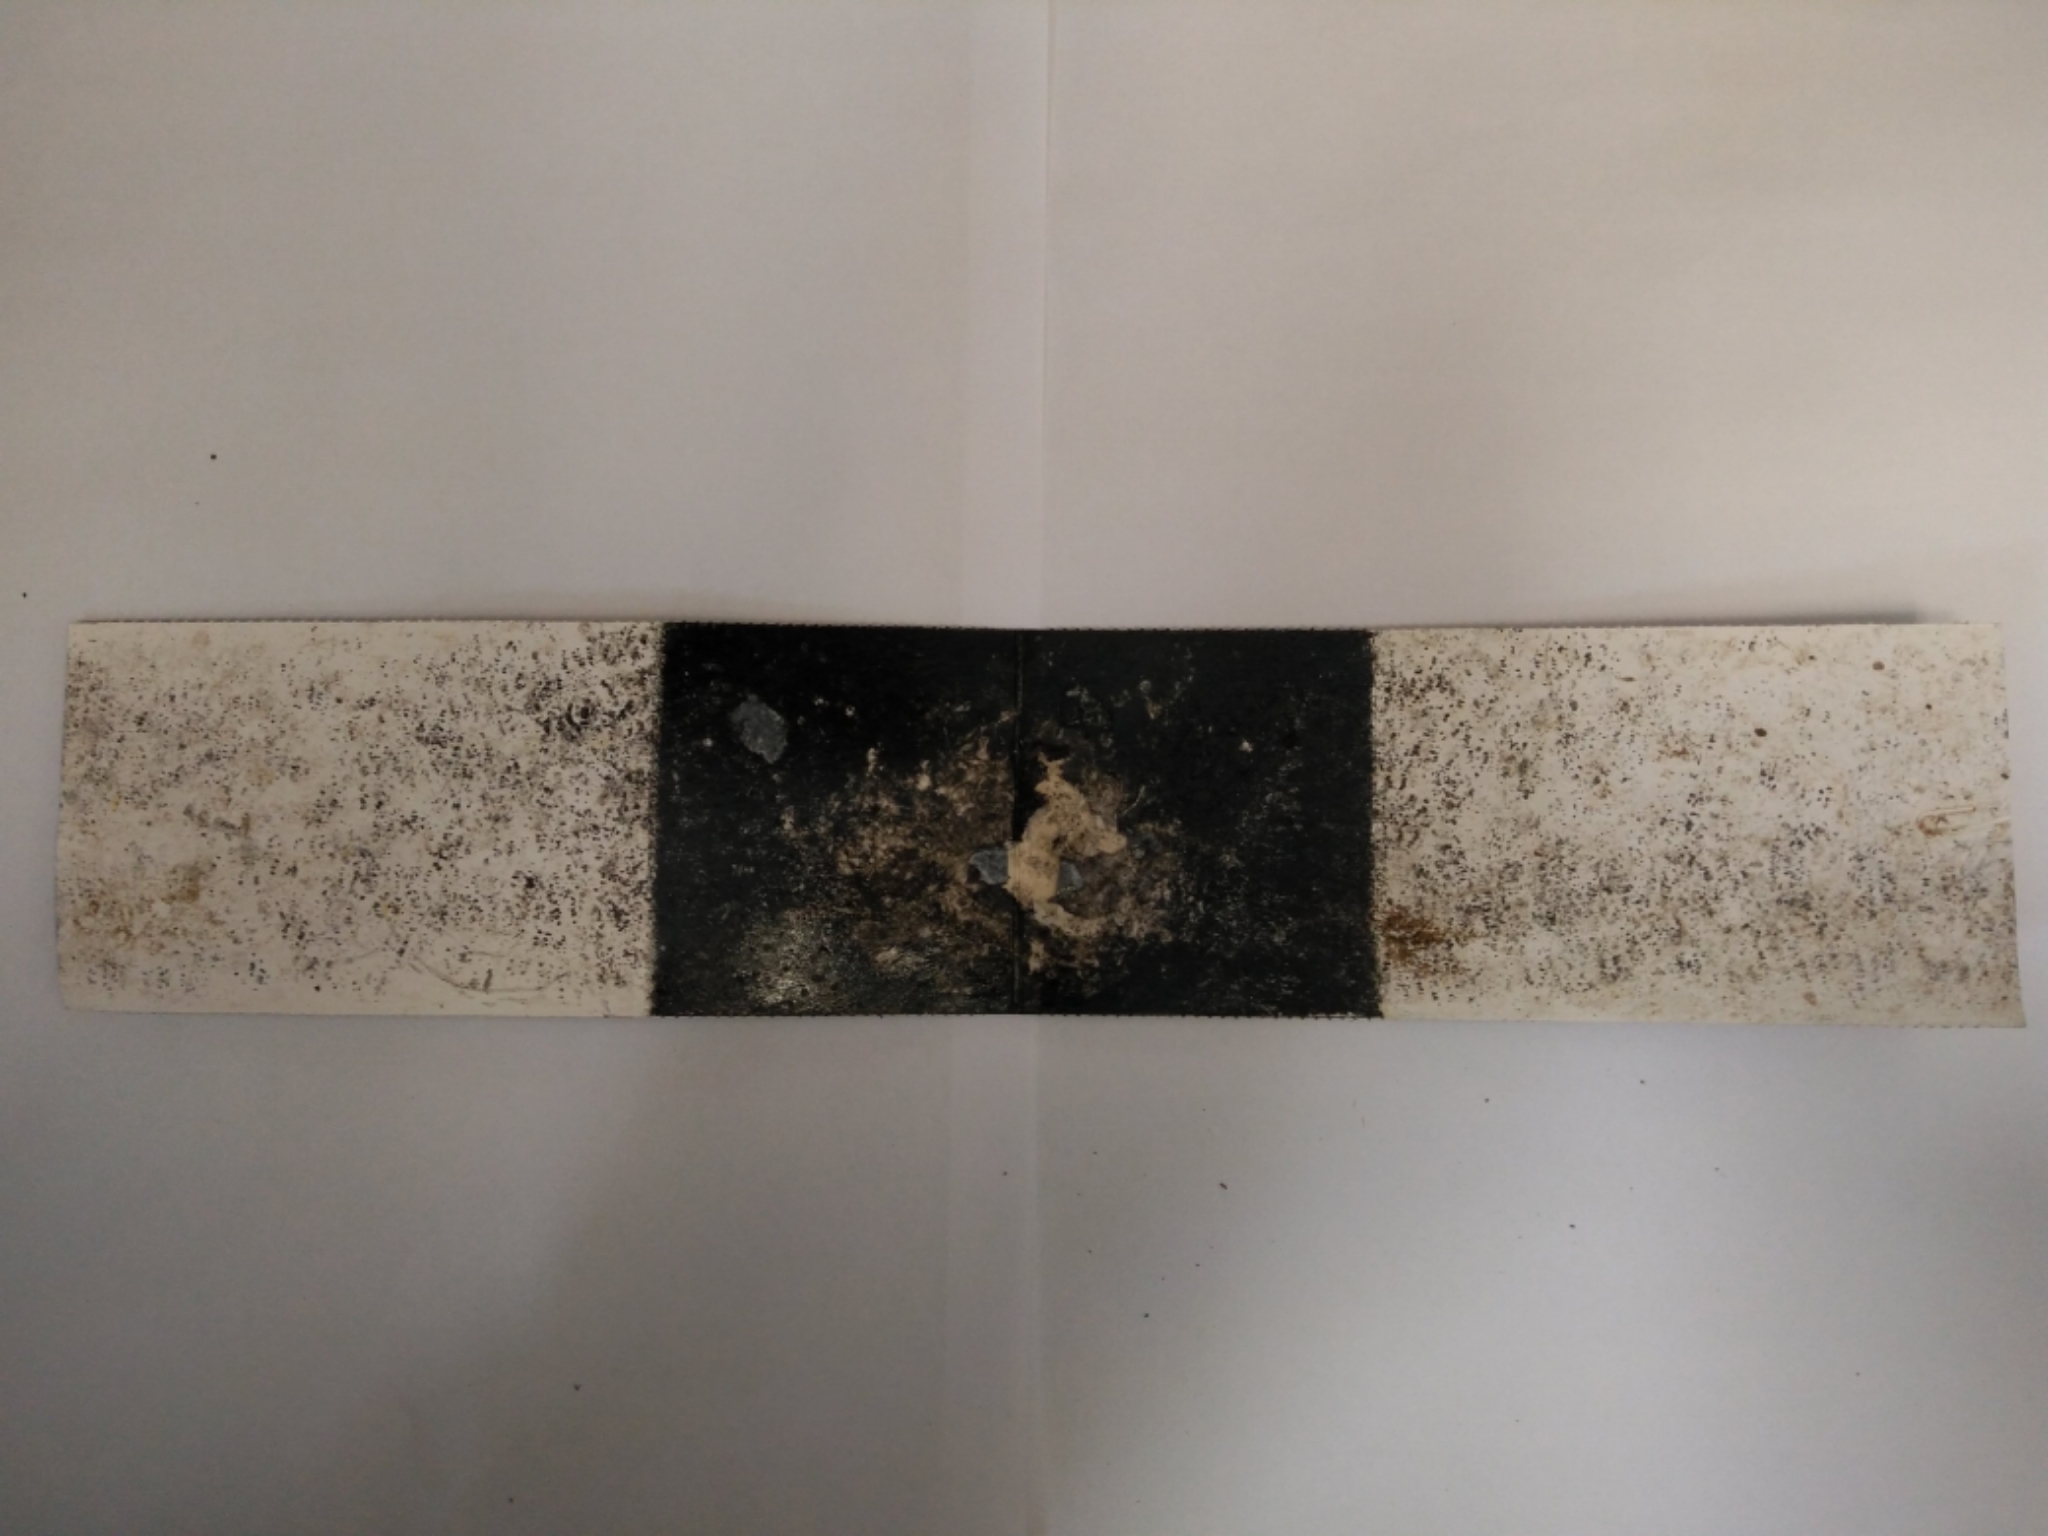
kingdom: Animalia
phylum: Chordata
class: Mammalia
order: Rodentia
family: Muridae
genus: Mus
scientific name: Mus musculus
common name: House mouse
